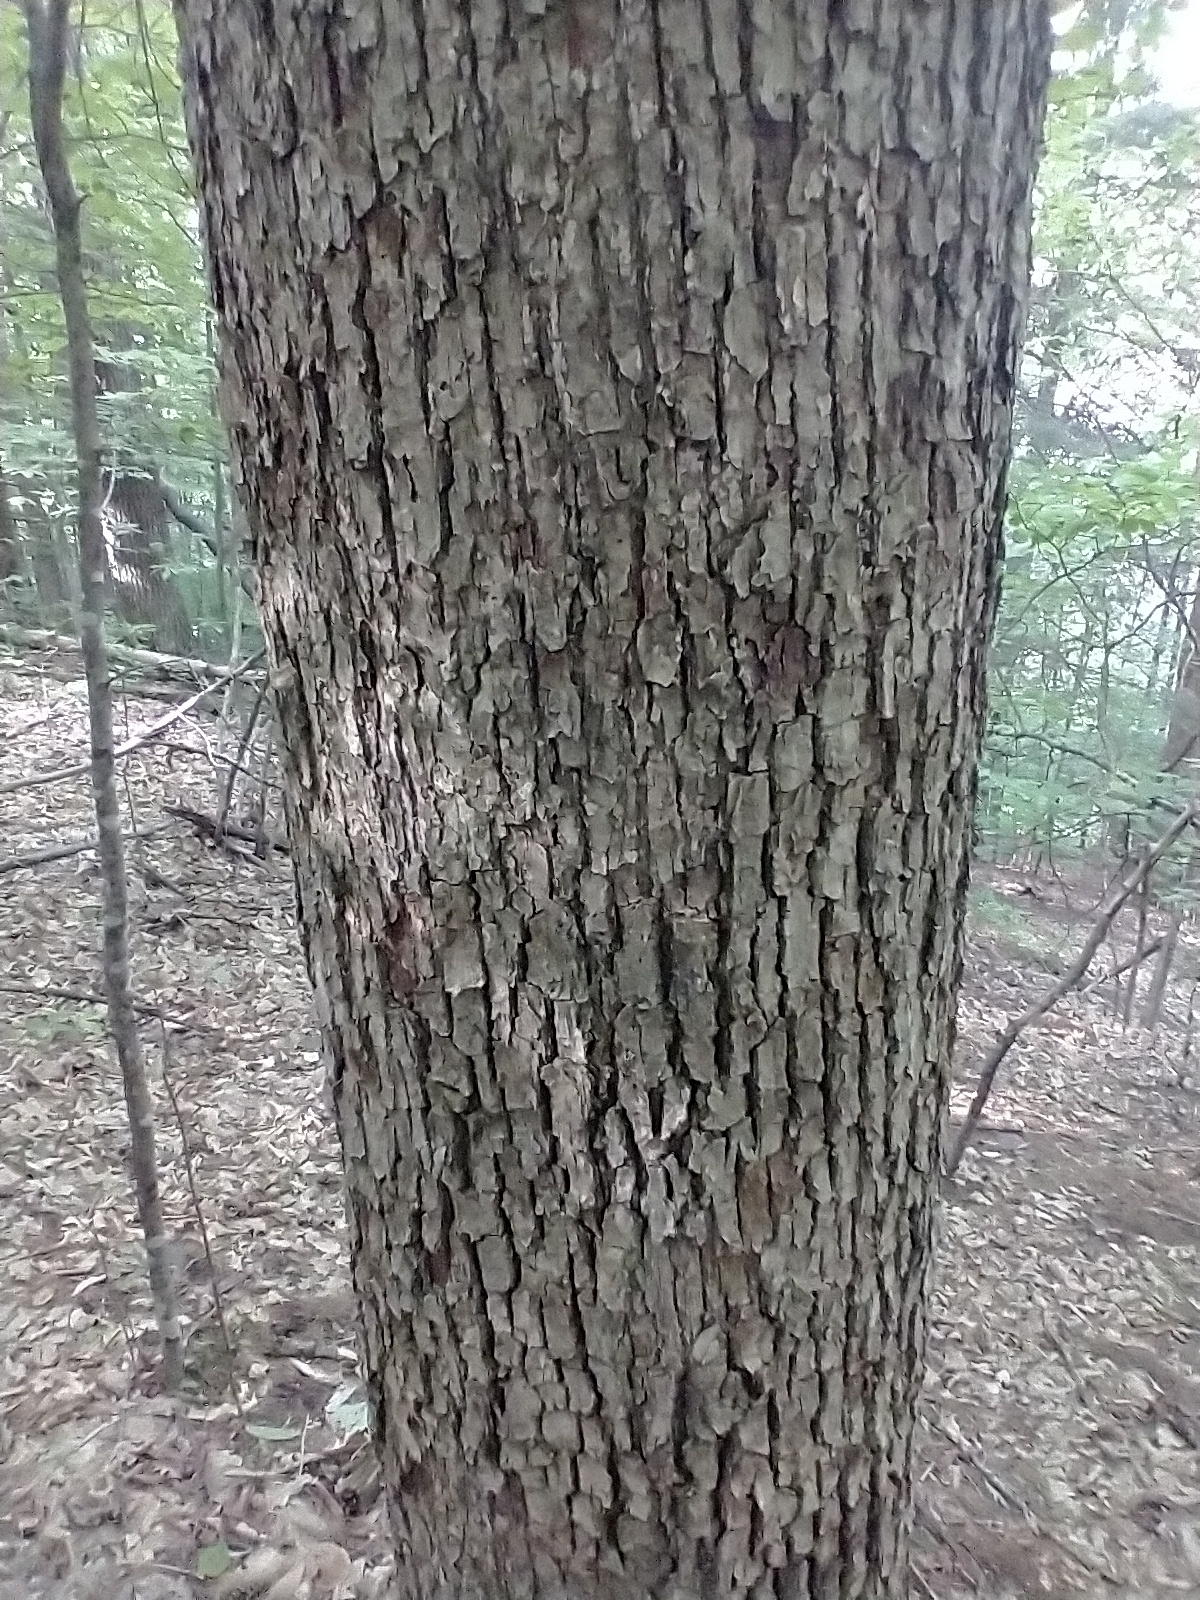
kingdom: Plantae
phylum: Tracheophyta
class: Magnoliopsida
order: Fagales
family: Fagaceae
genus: Quercus
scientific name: Quercus alba
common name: White oak
